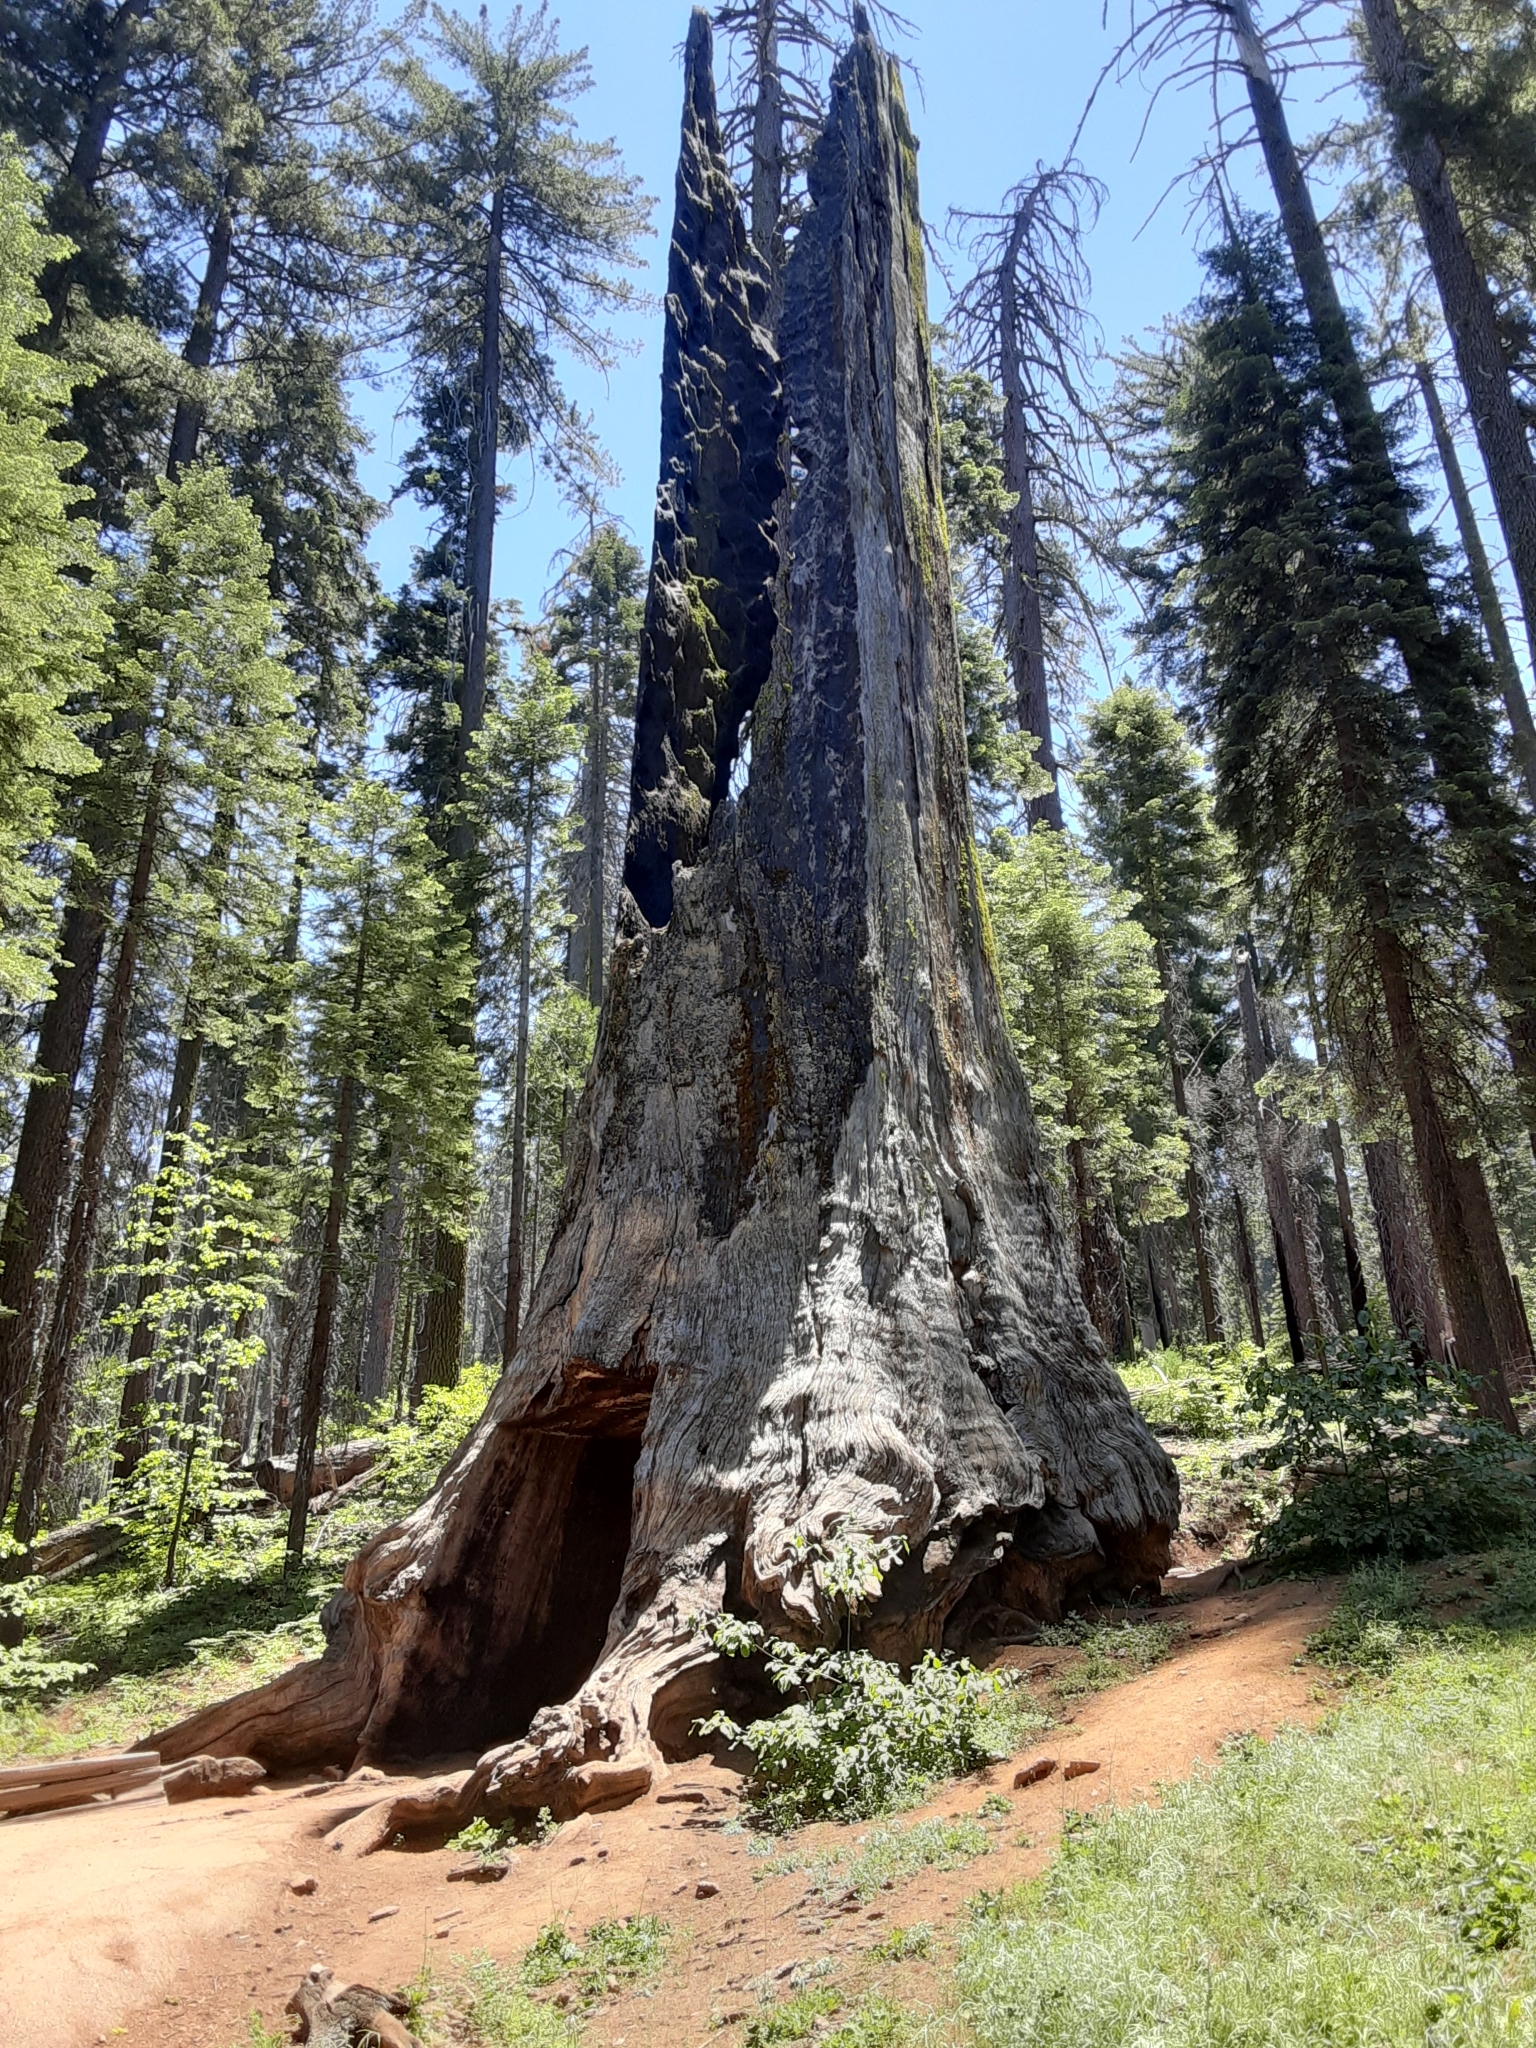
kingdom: Plantae
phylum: Tracheophyta
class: Pinopsida
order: Pinales
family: Cupressaceae
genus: Sequoiadendron
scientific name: Sequoiadendron giganteum
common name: Wellingtonia
